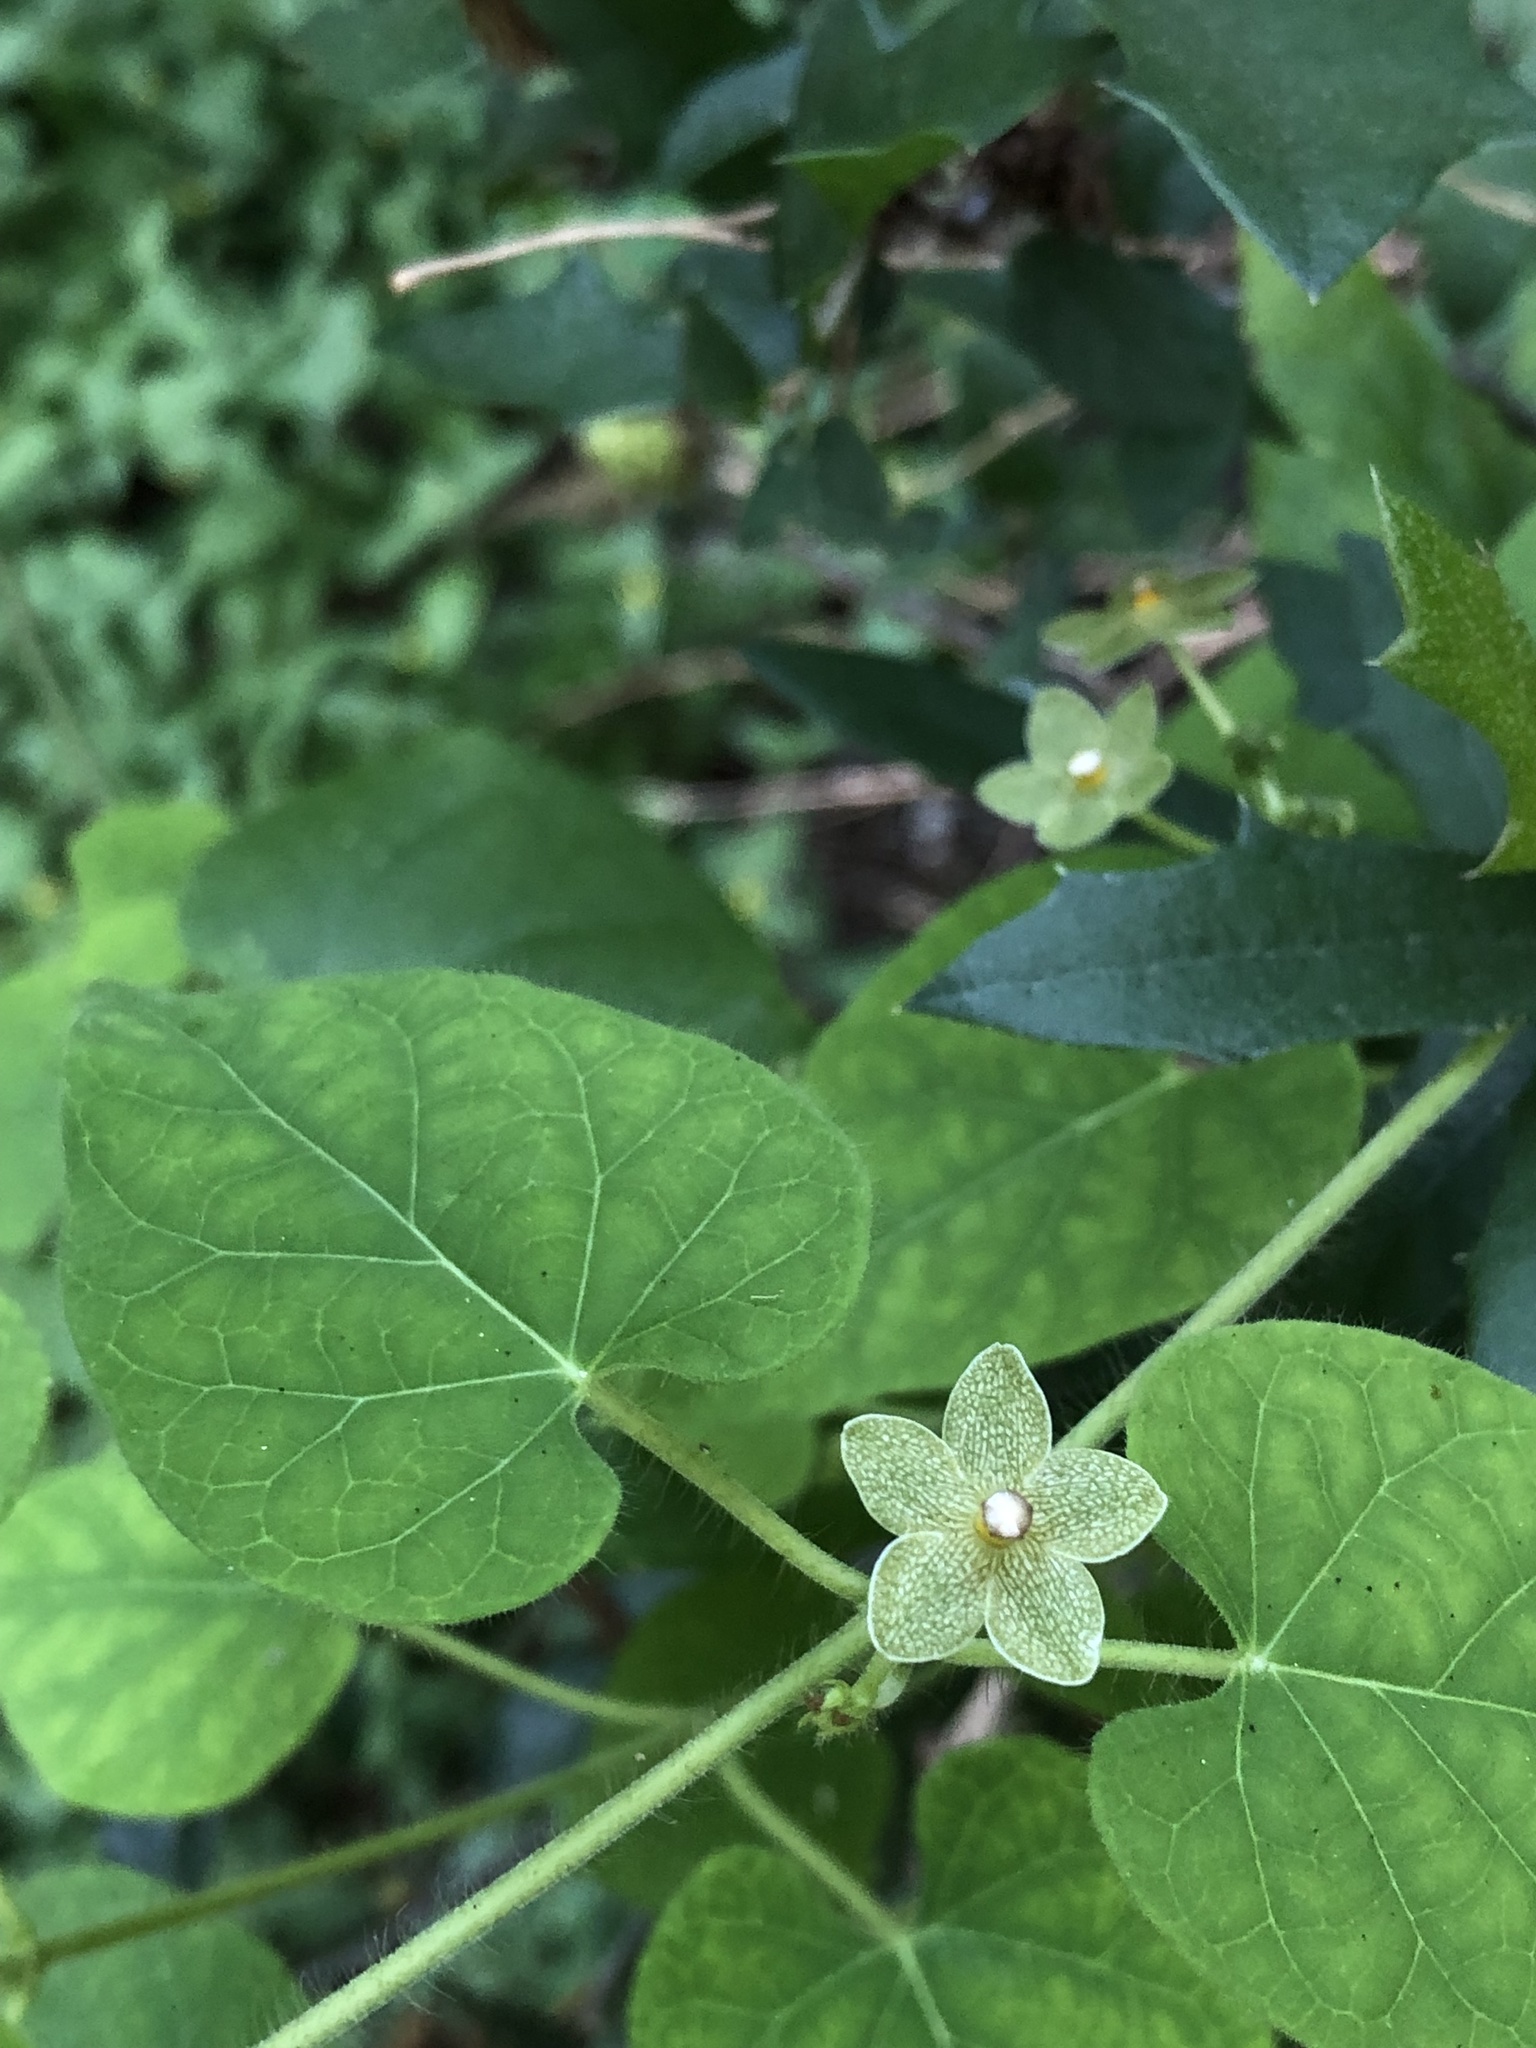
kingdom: Plantae
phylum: Tracheophyta
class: Magnoliopsida
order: Gentianales
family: Apocynaceae
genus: Dictyanthus
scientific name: Dictyanthus reticulatus
